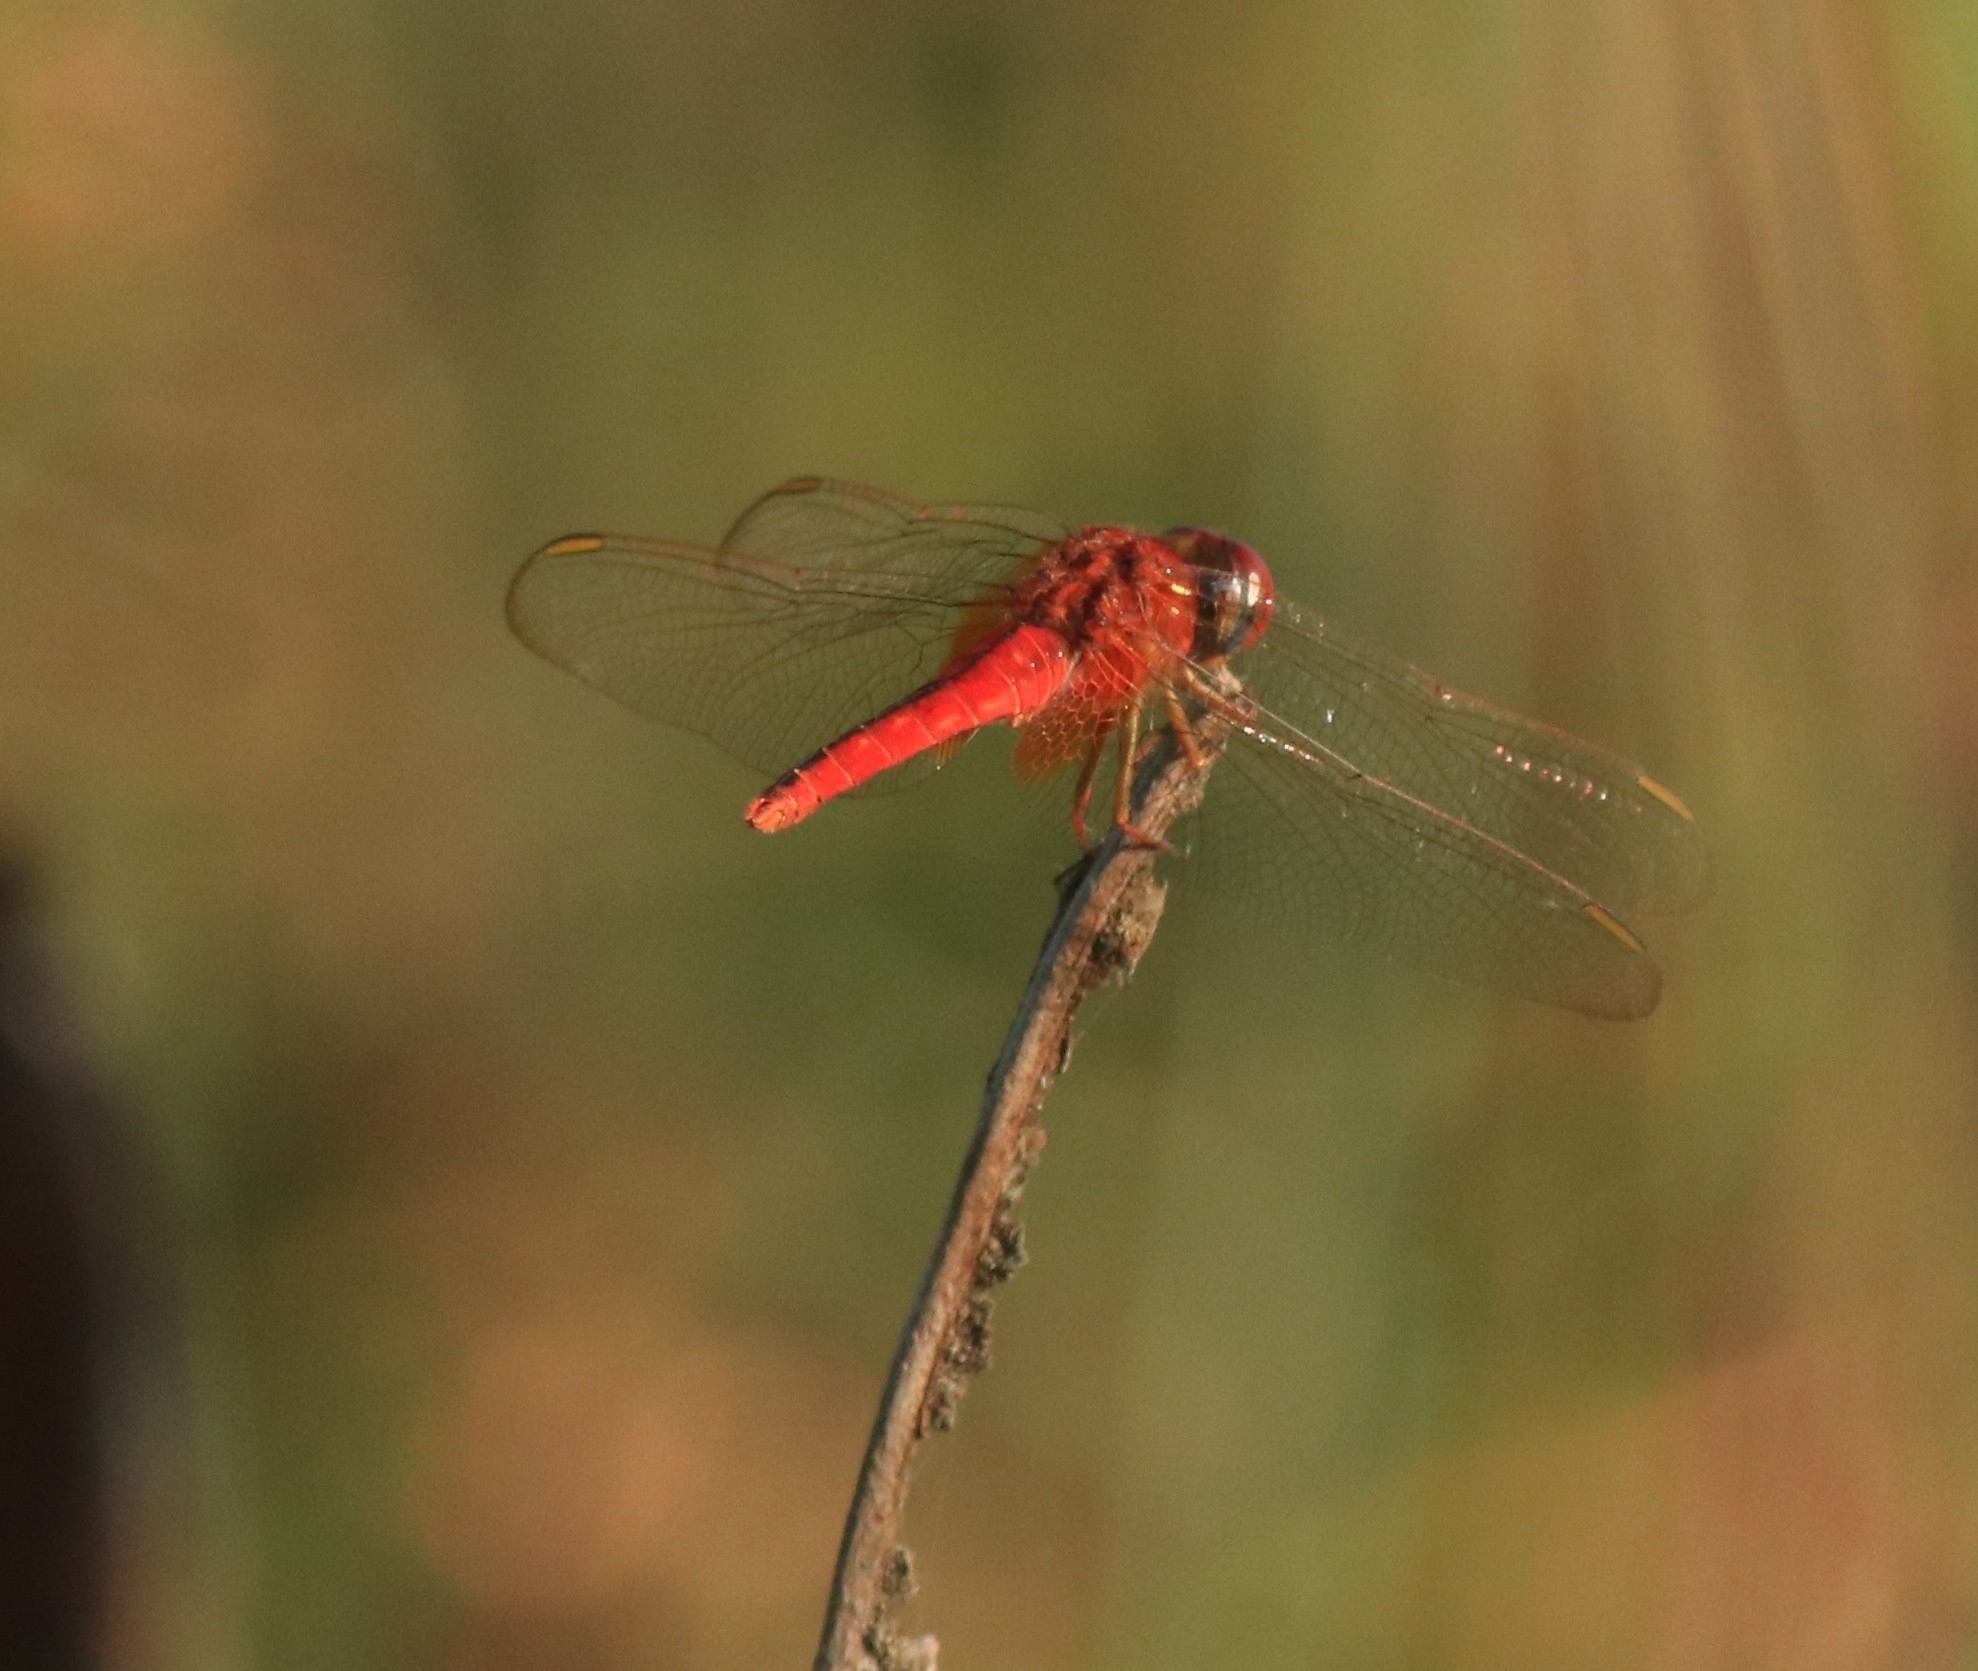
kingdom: Animalia
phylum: Arthropoda
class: Insecta
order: Odonata
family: Libellulidae
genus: Crocothemis
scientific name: Crocothemis servilia
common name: Scarlet skimmer
